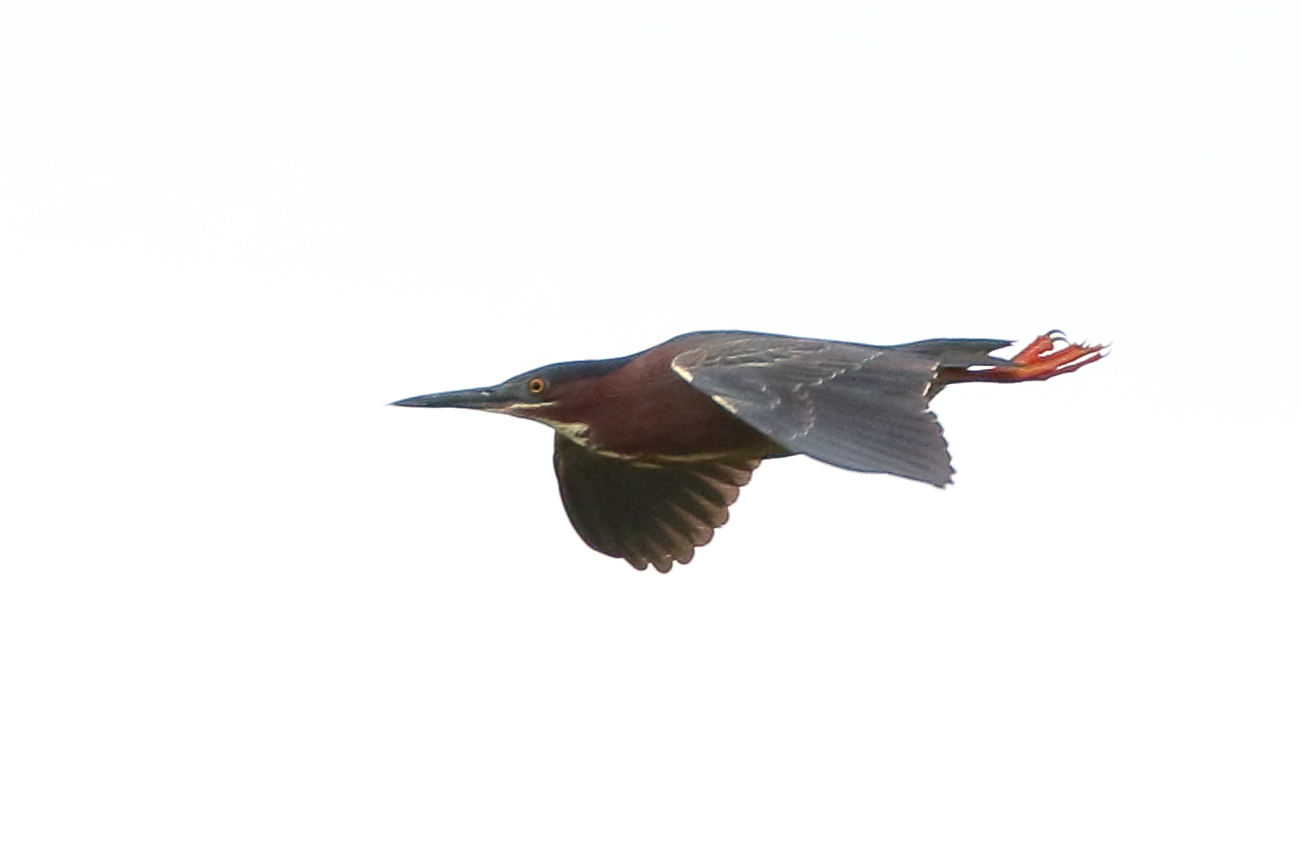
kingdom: Animalia
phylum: Chordata
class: Aves
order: Pelecaniformes
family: Ardeidae
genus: Butorides
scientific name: Butorides virescens
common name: Green heron
